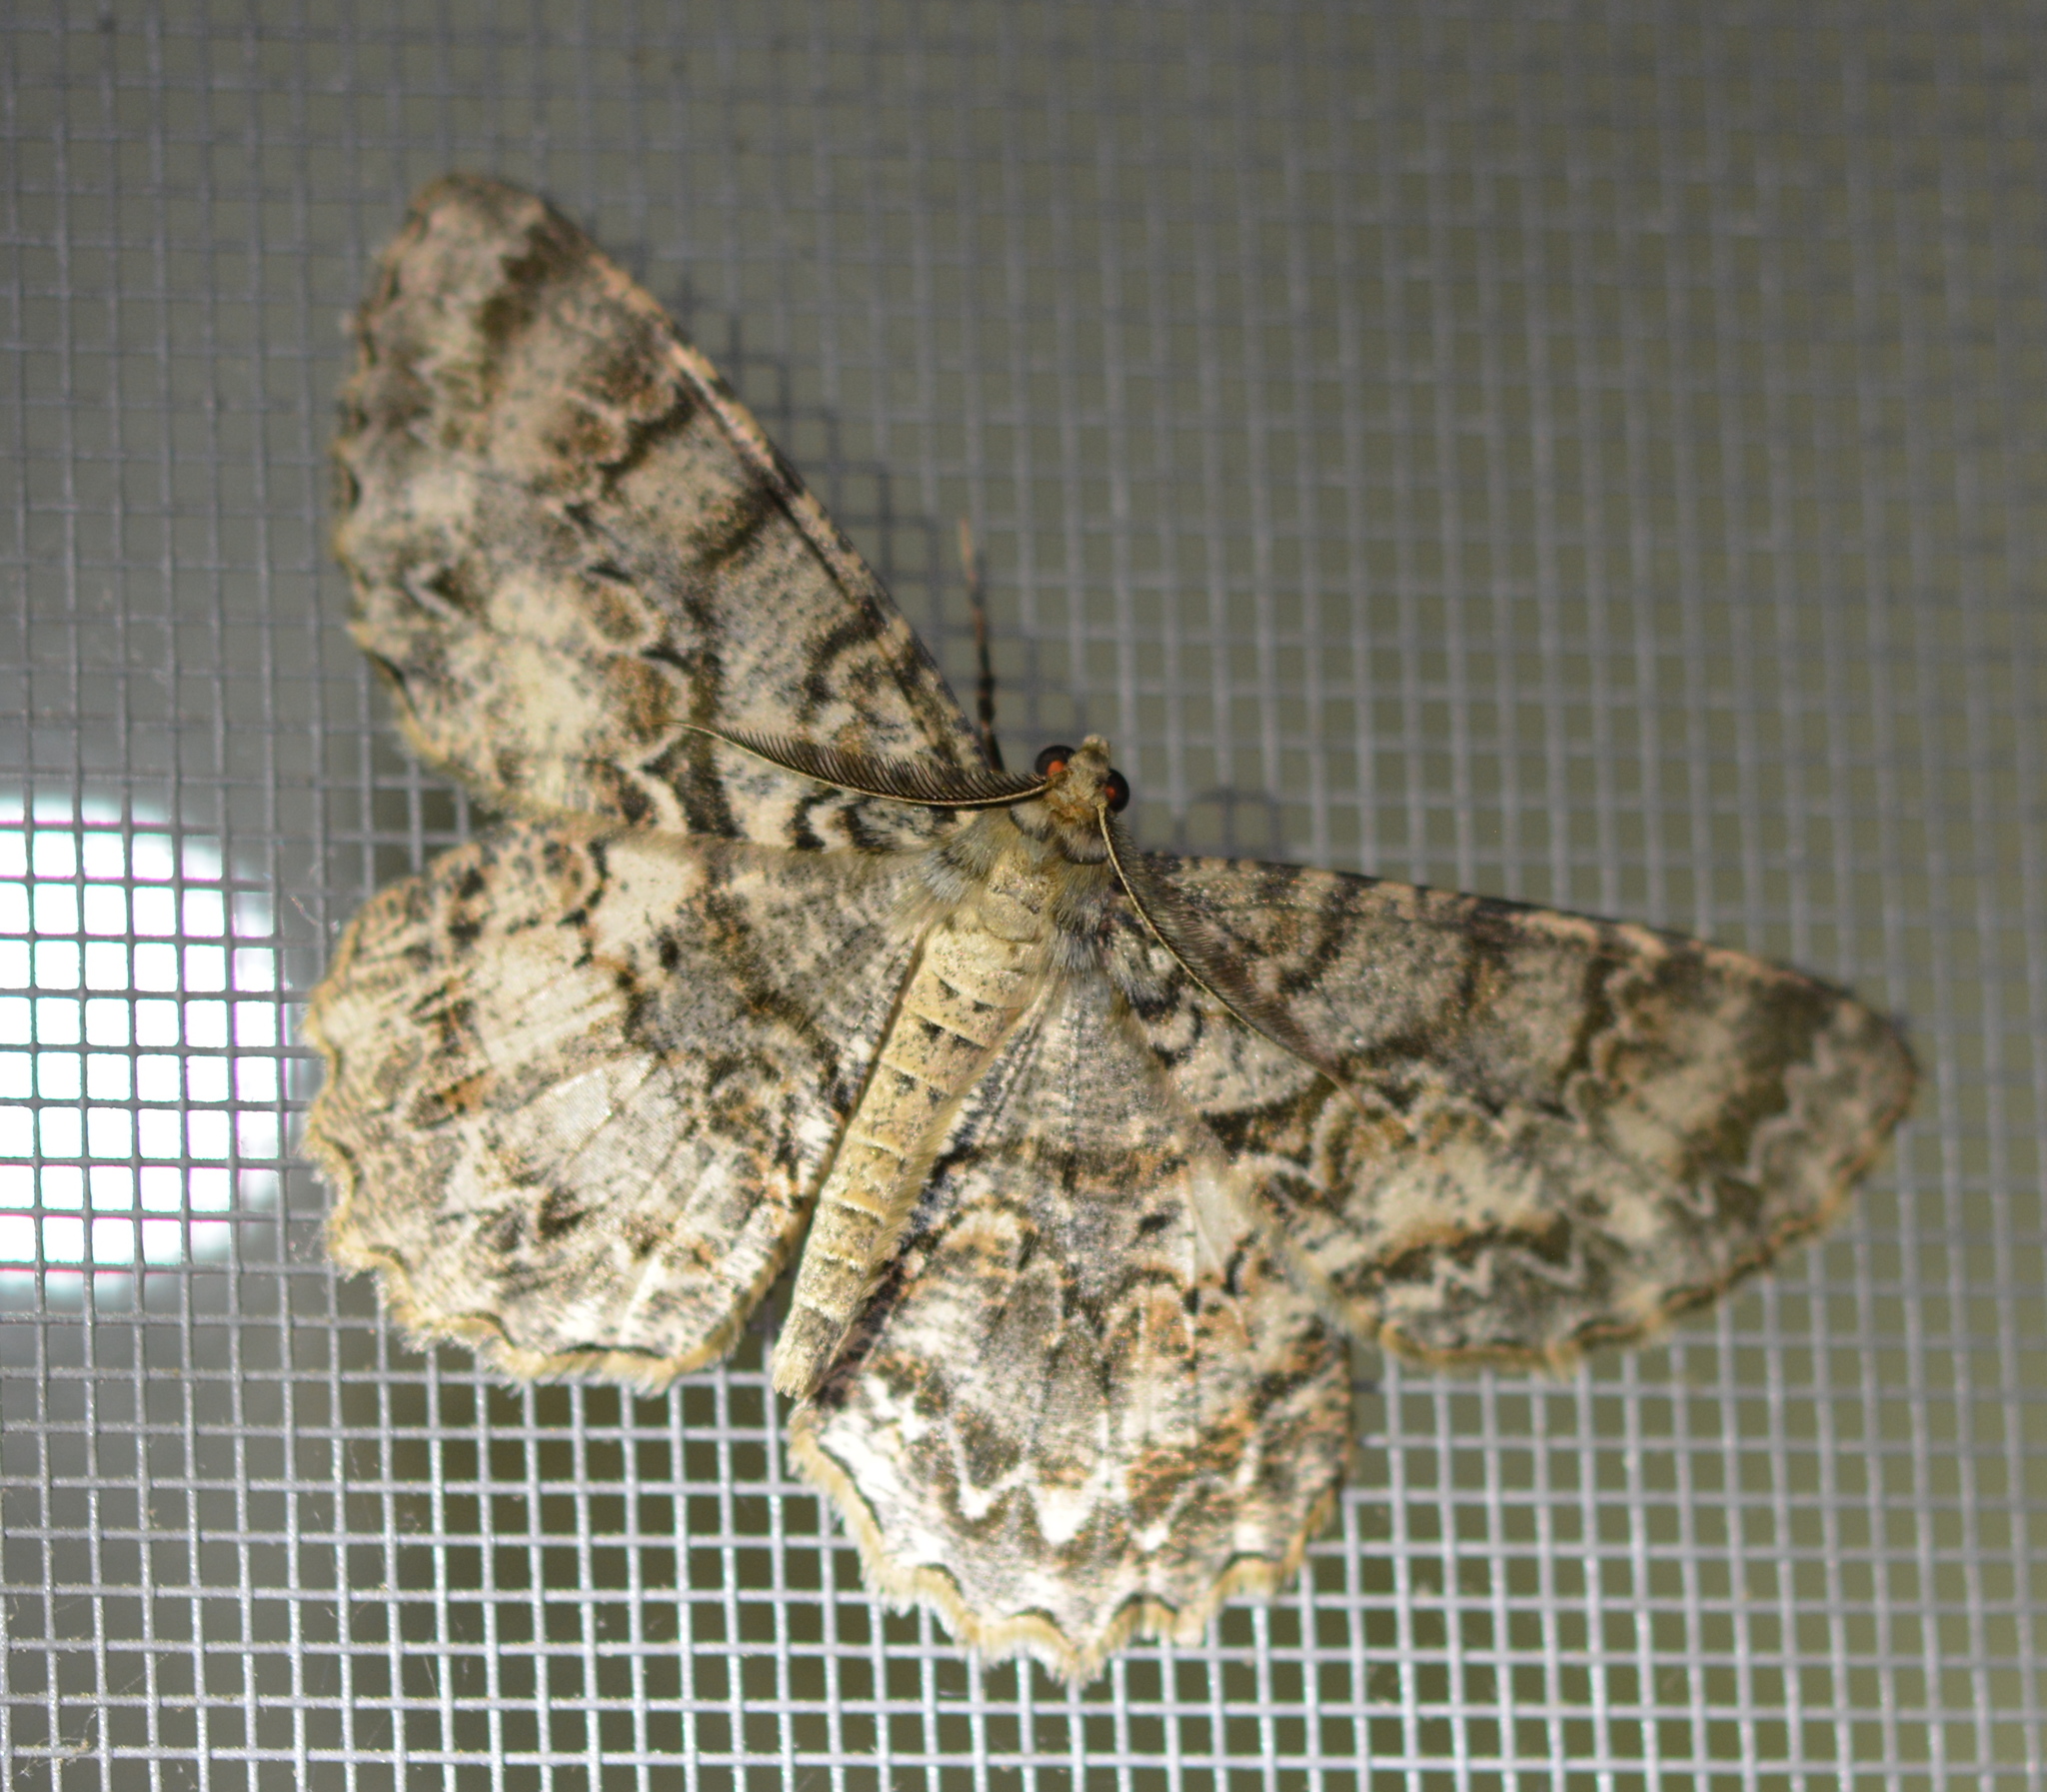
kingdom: Animalia
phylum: Arthropoda
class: Insecta
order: Lepidoptera
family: Geometridae
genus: Epimecis
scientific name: Epimecis hortaria
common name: Tulip-tree beauty
